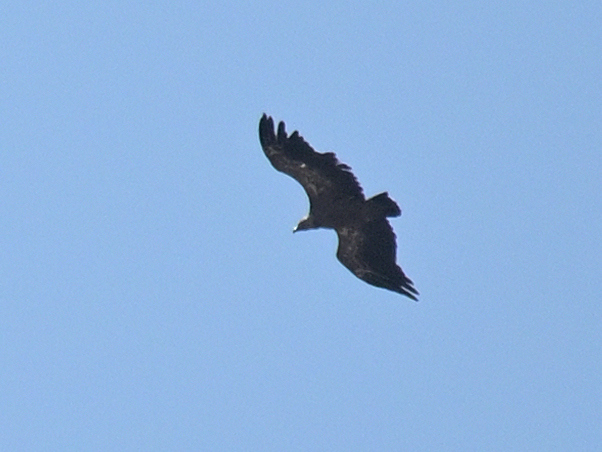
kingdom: Animalia
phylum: Chordata
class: Aves
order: Accipitriformes
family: Accipitridae
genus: Gyps
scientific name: Gyps fulvus
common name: Griffon vulture
